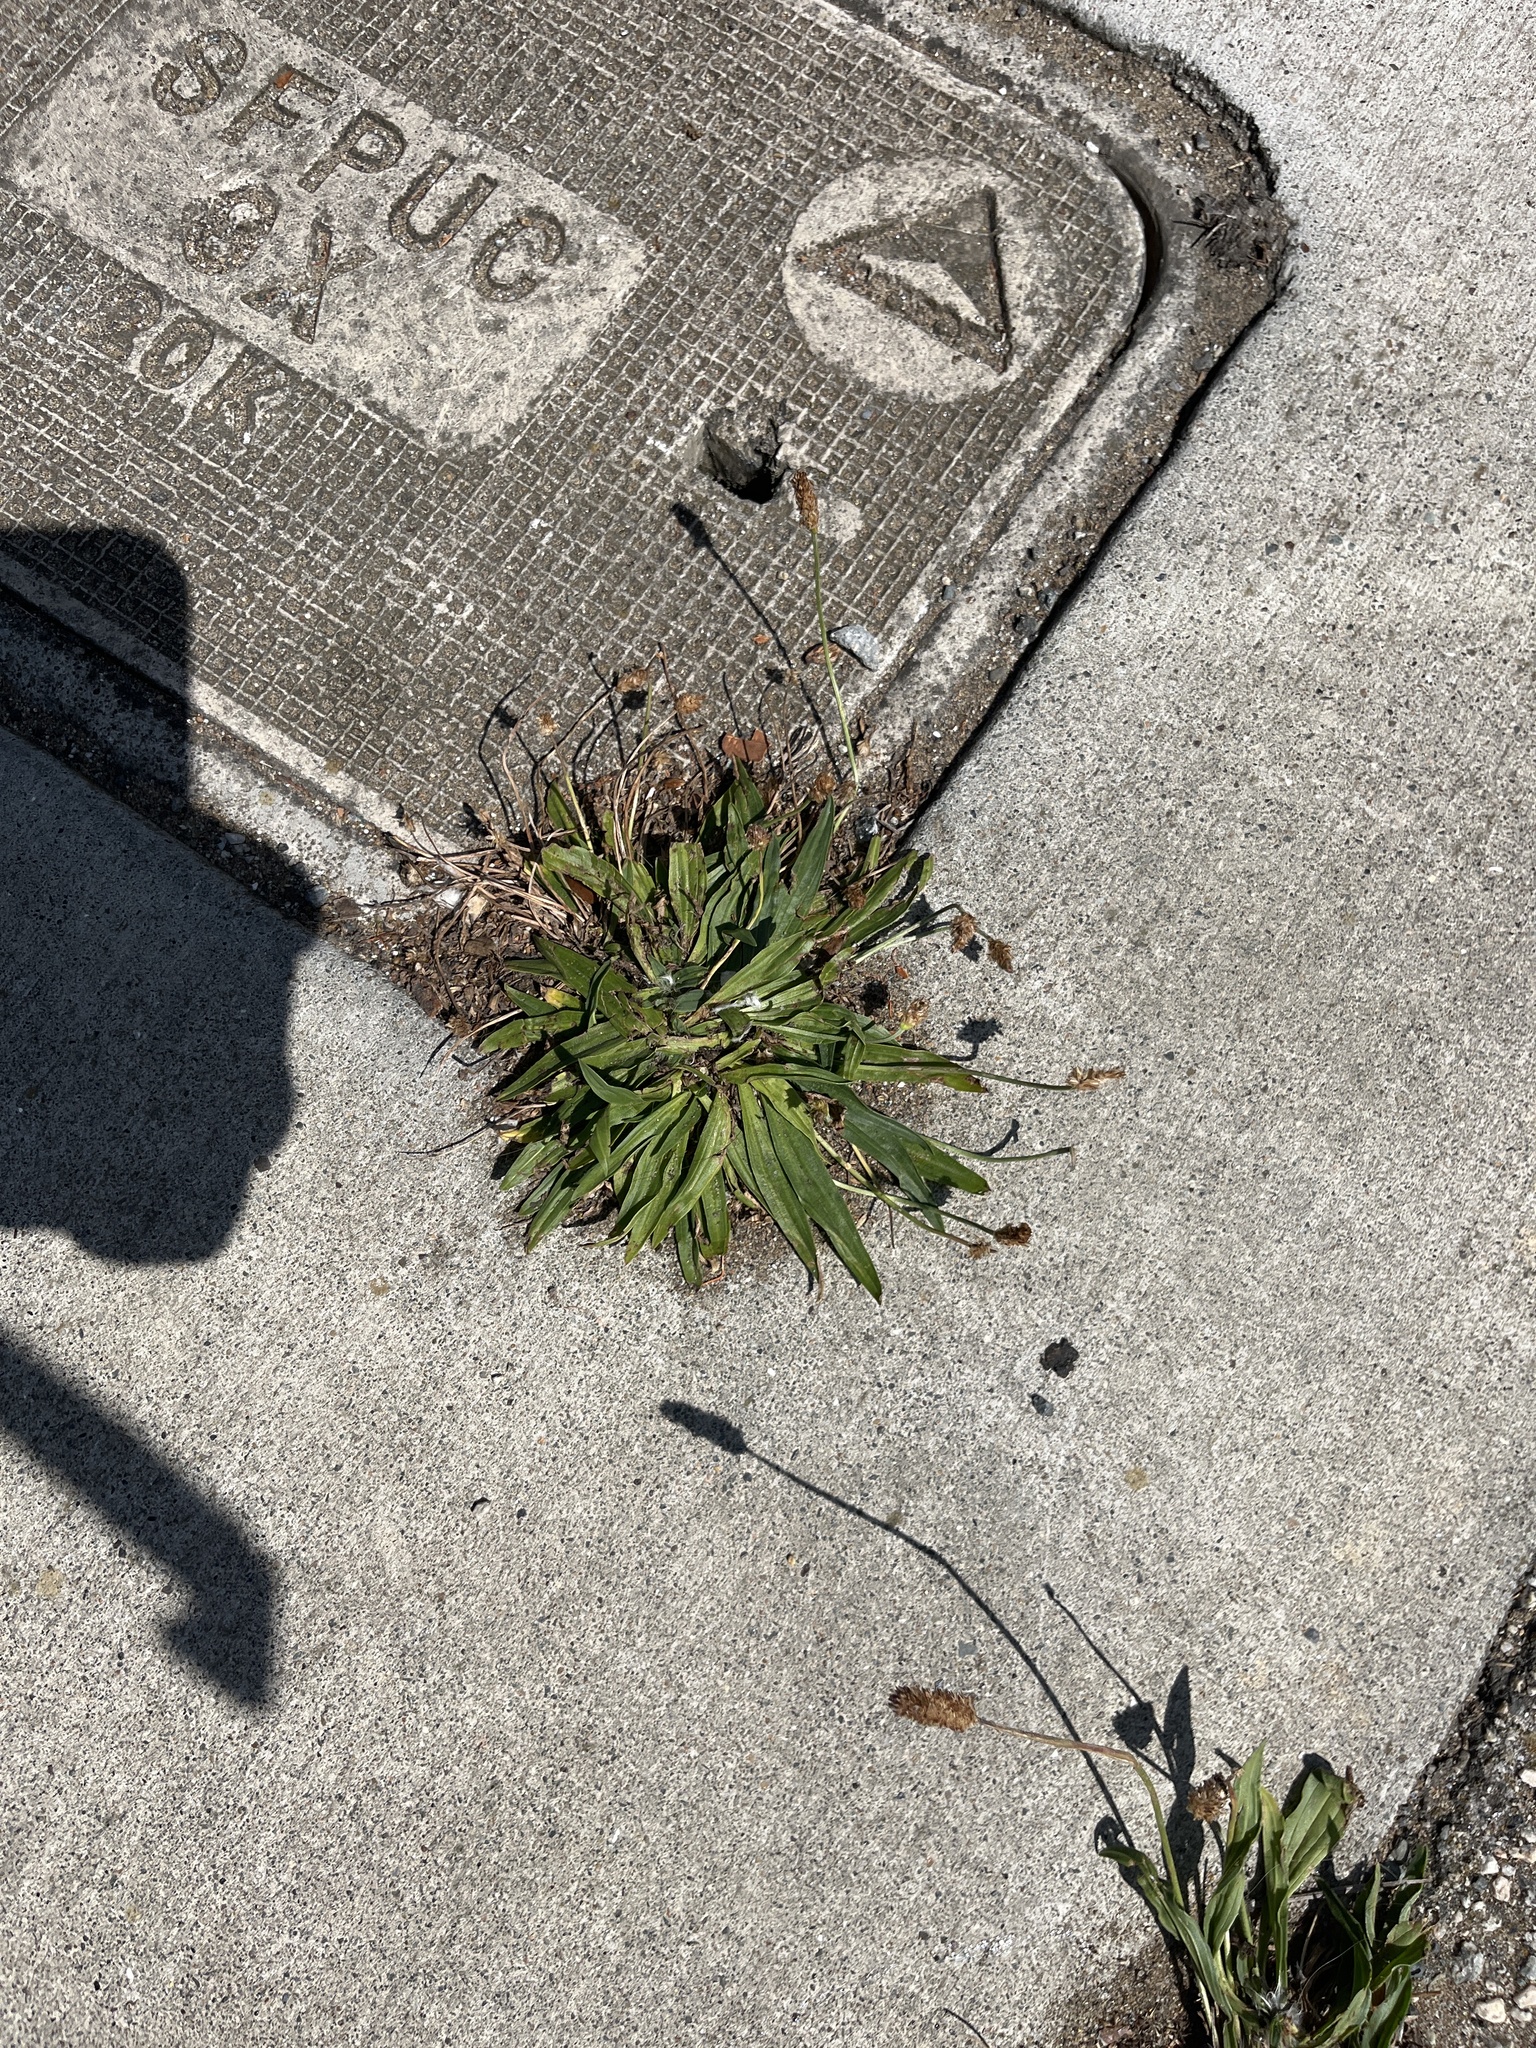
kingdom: Plantae
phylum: Tracheophyta
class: Magnoliopsida
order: Lamiales
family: Plantaginaceae
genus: Plantago
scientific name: Plantago lanceolata
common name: Ribwort plantain
